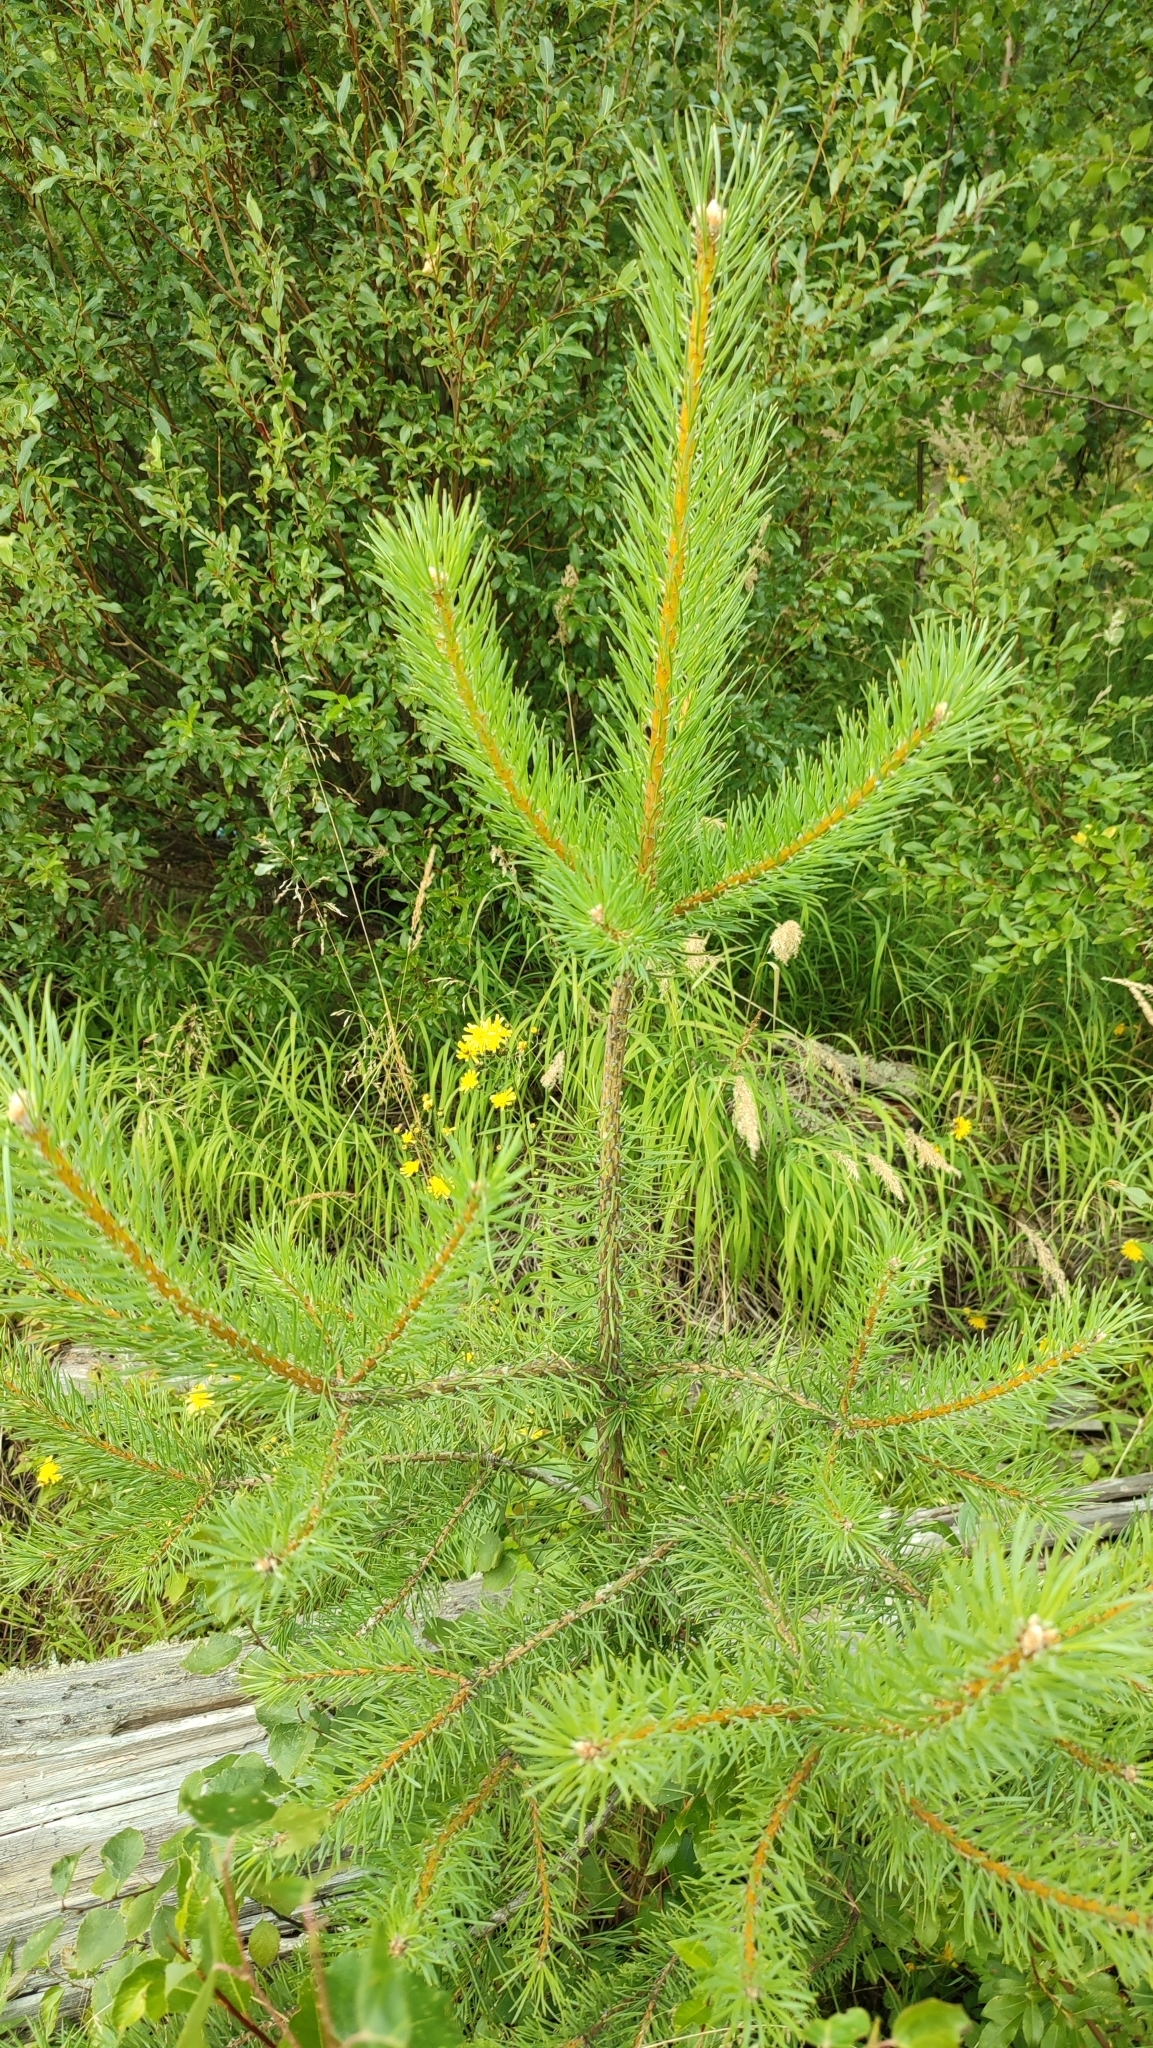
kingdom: Plantae
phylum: Tracheophyta
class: Pinopsida
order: Pinales
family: Pinaceae
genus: Pinus
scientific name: Pinus sylvestris
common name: Scots pine
